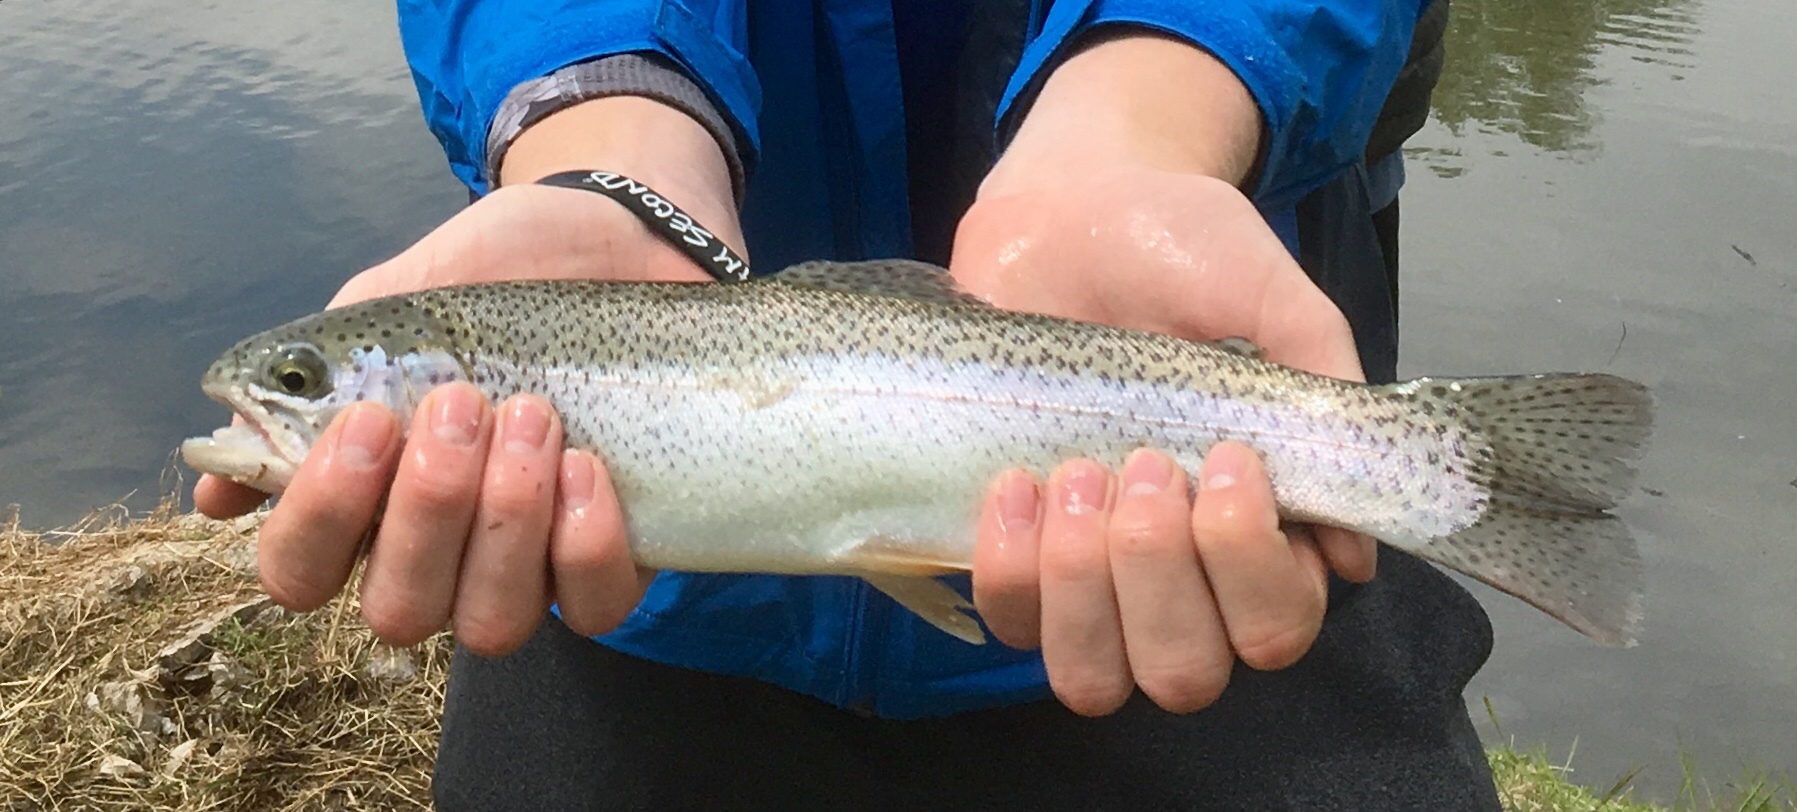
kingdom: Animalia
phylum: Chordata
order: Salmoniformes
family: Salmonidae
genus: Oncorhynchus
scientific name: Oncorhynchus mykiss
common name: Rainbow trout
